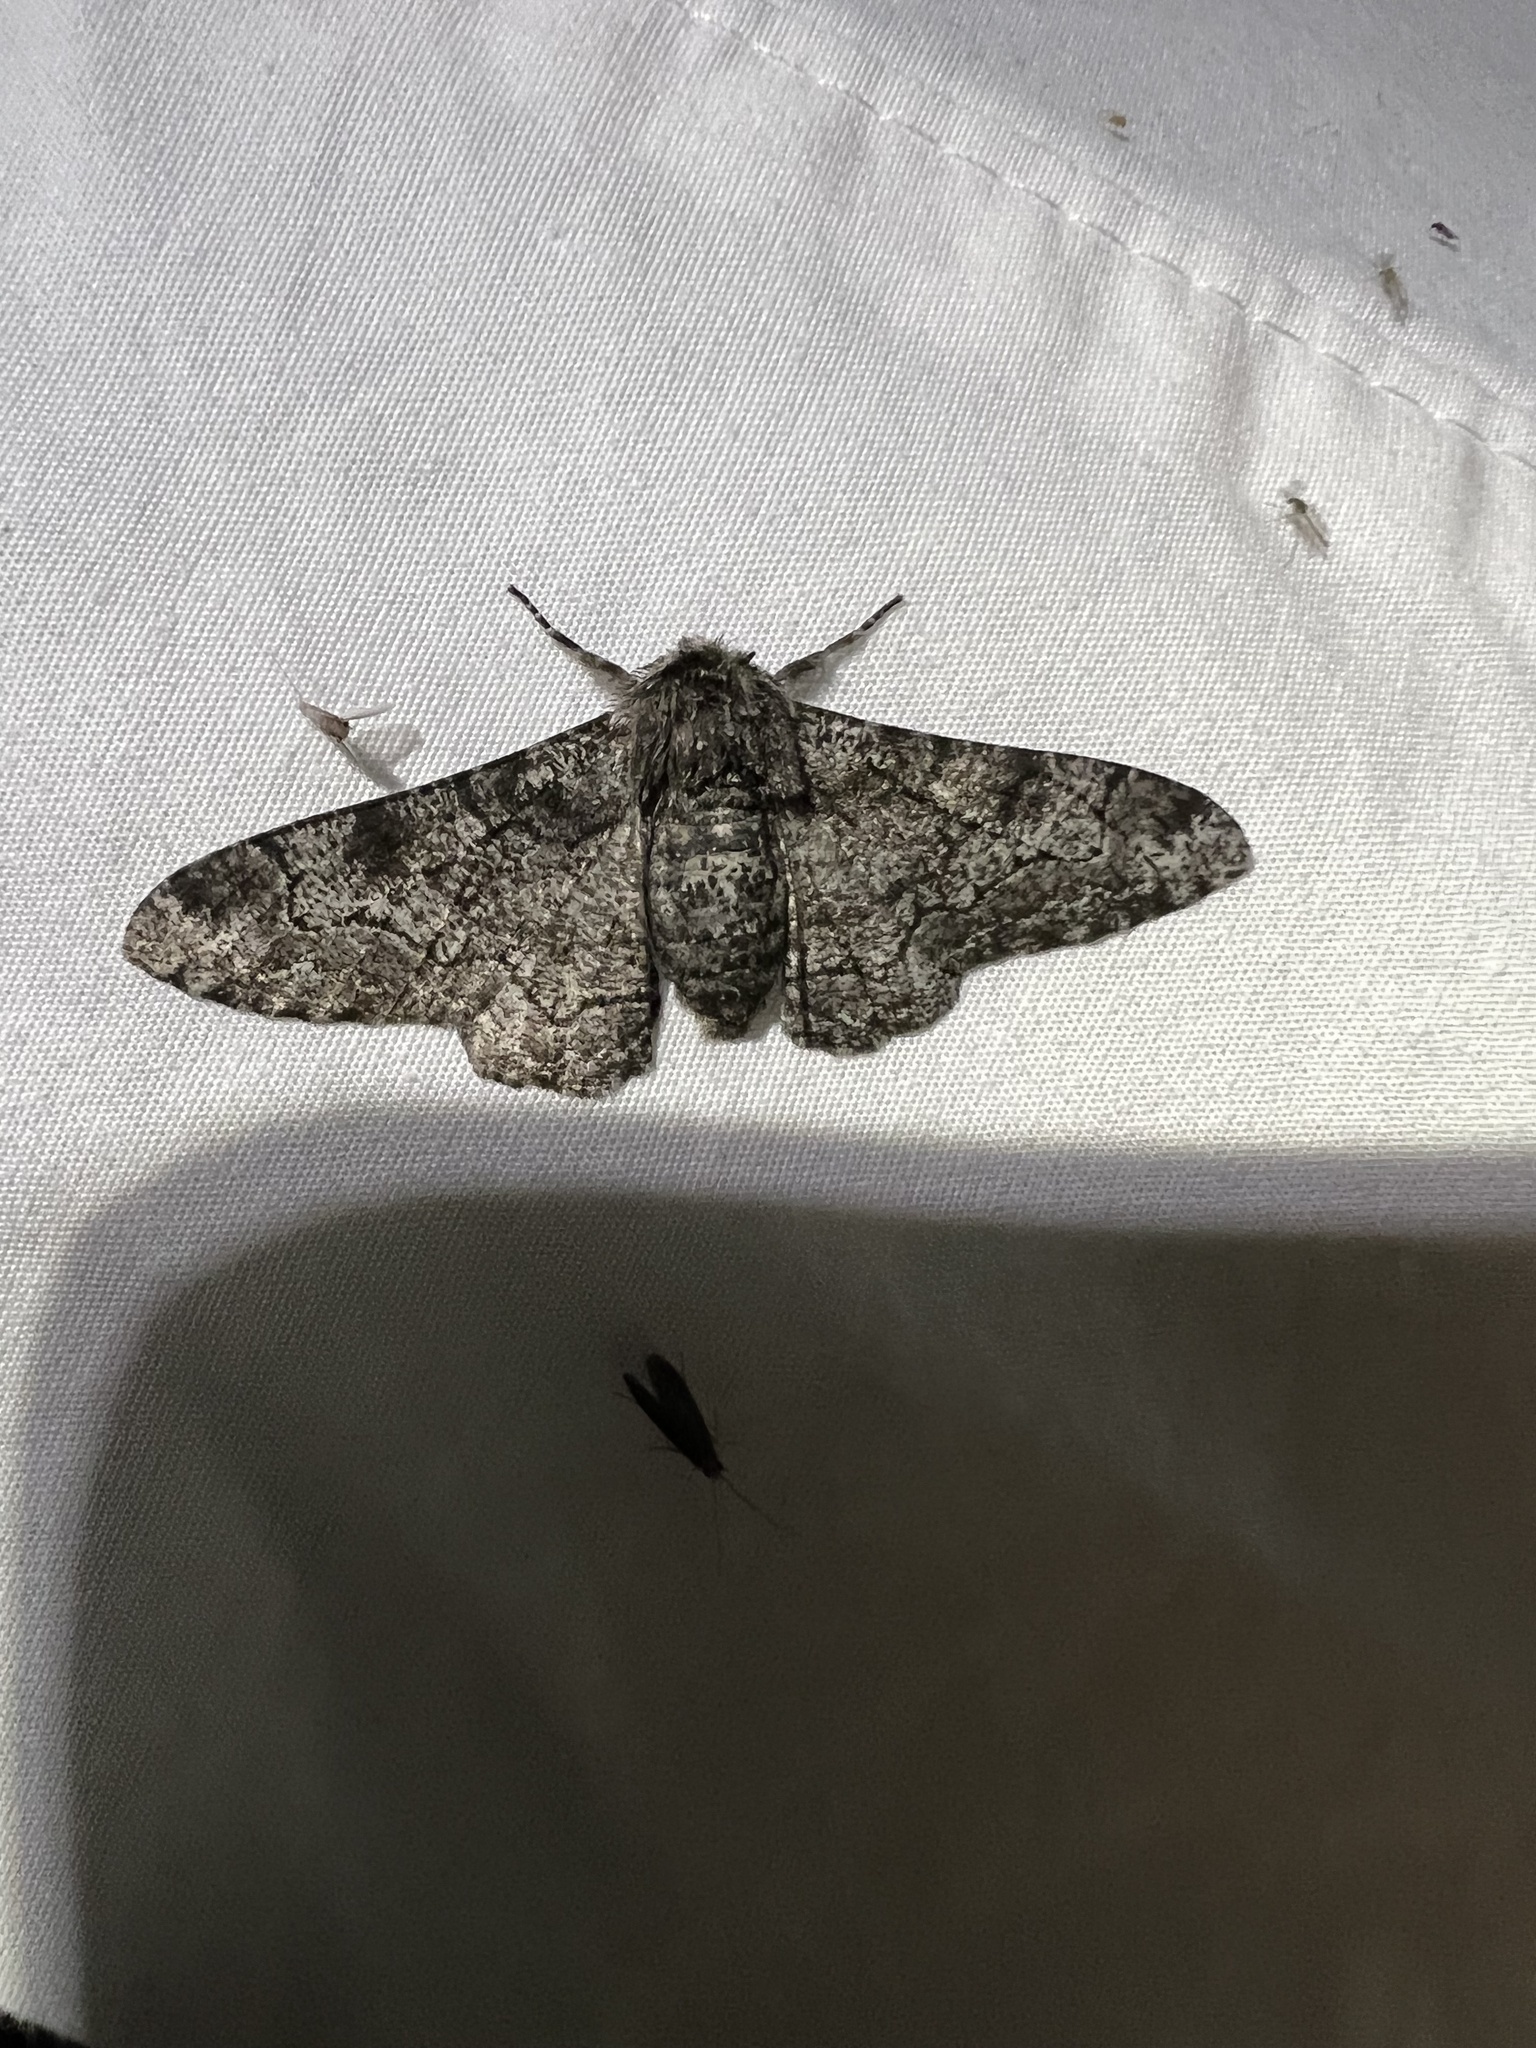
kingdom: Animalia
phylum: Arthropoda
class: Insecta
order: Lepidoptera
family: Geometridae
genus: Biston
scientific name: Biston betularia
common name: Peppered moth
